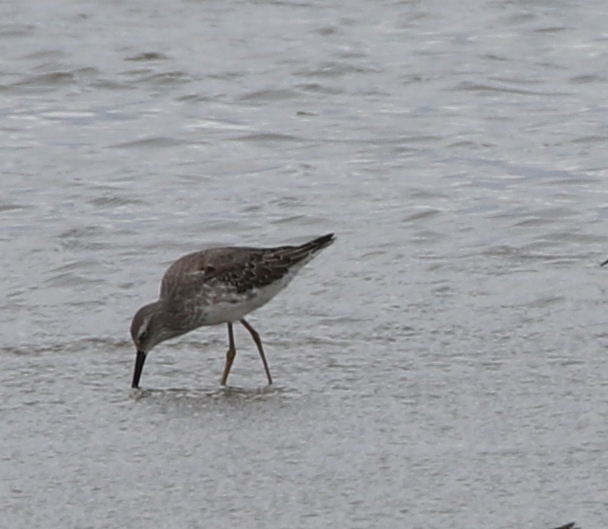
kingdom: Animalia
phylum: Chordata
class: Aves
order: Charadriiformes
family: Scolopacidae
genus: Calidris
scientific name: Calidris himantopus
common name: Stilt sandpiper
